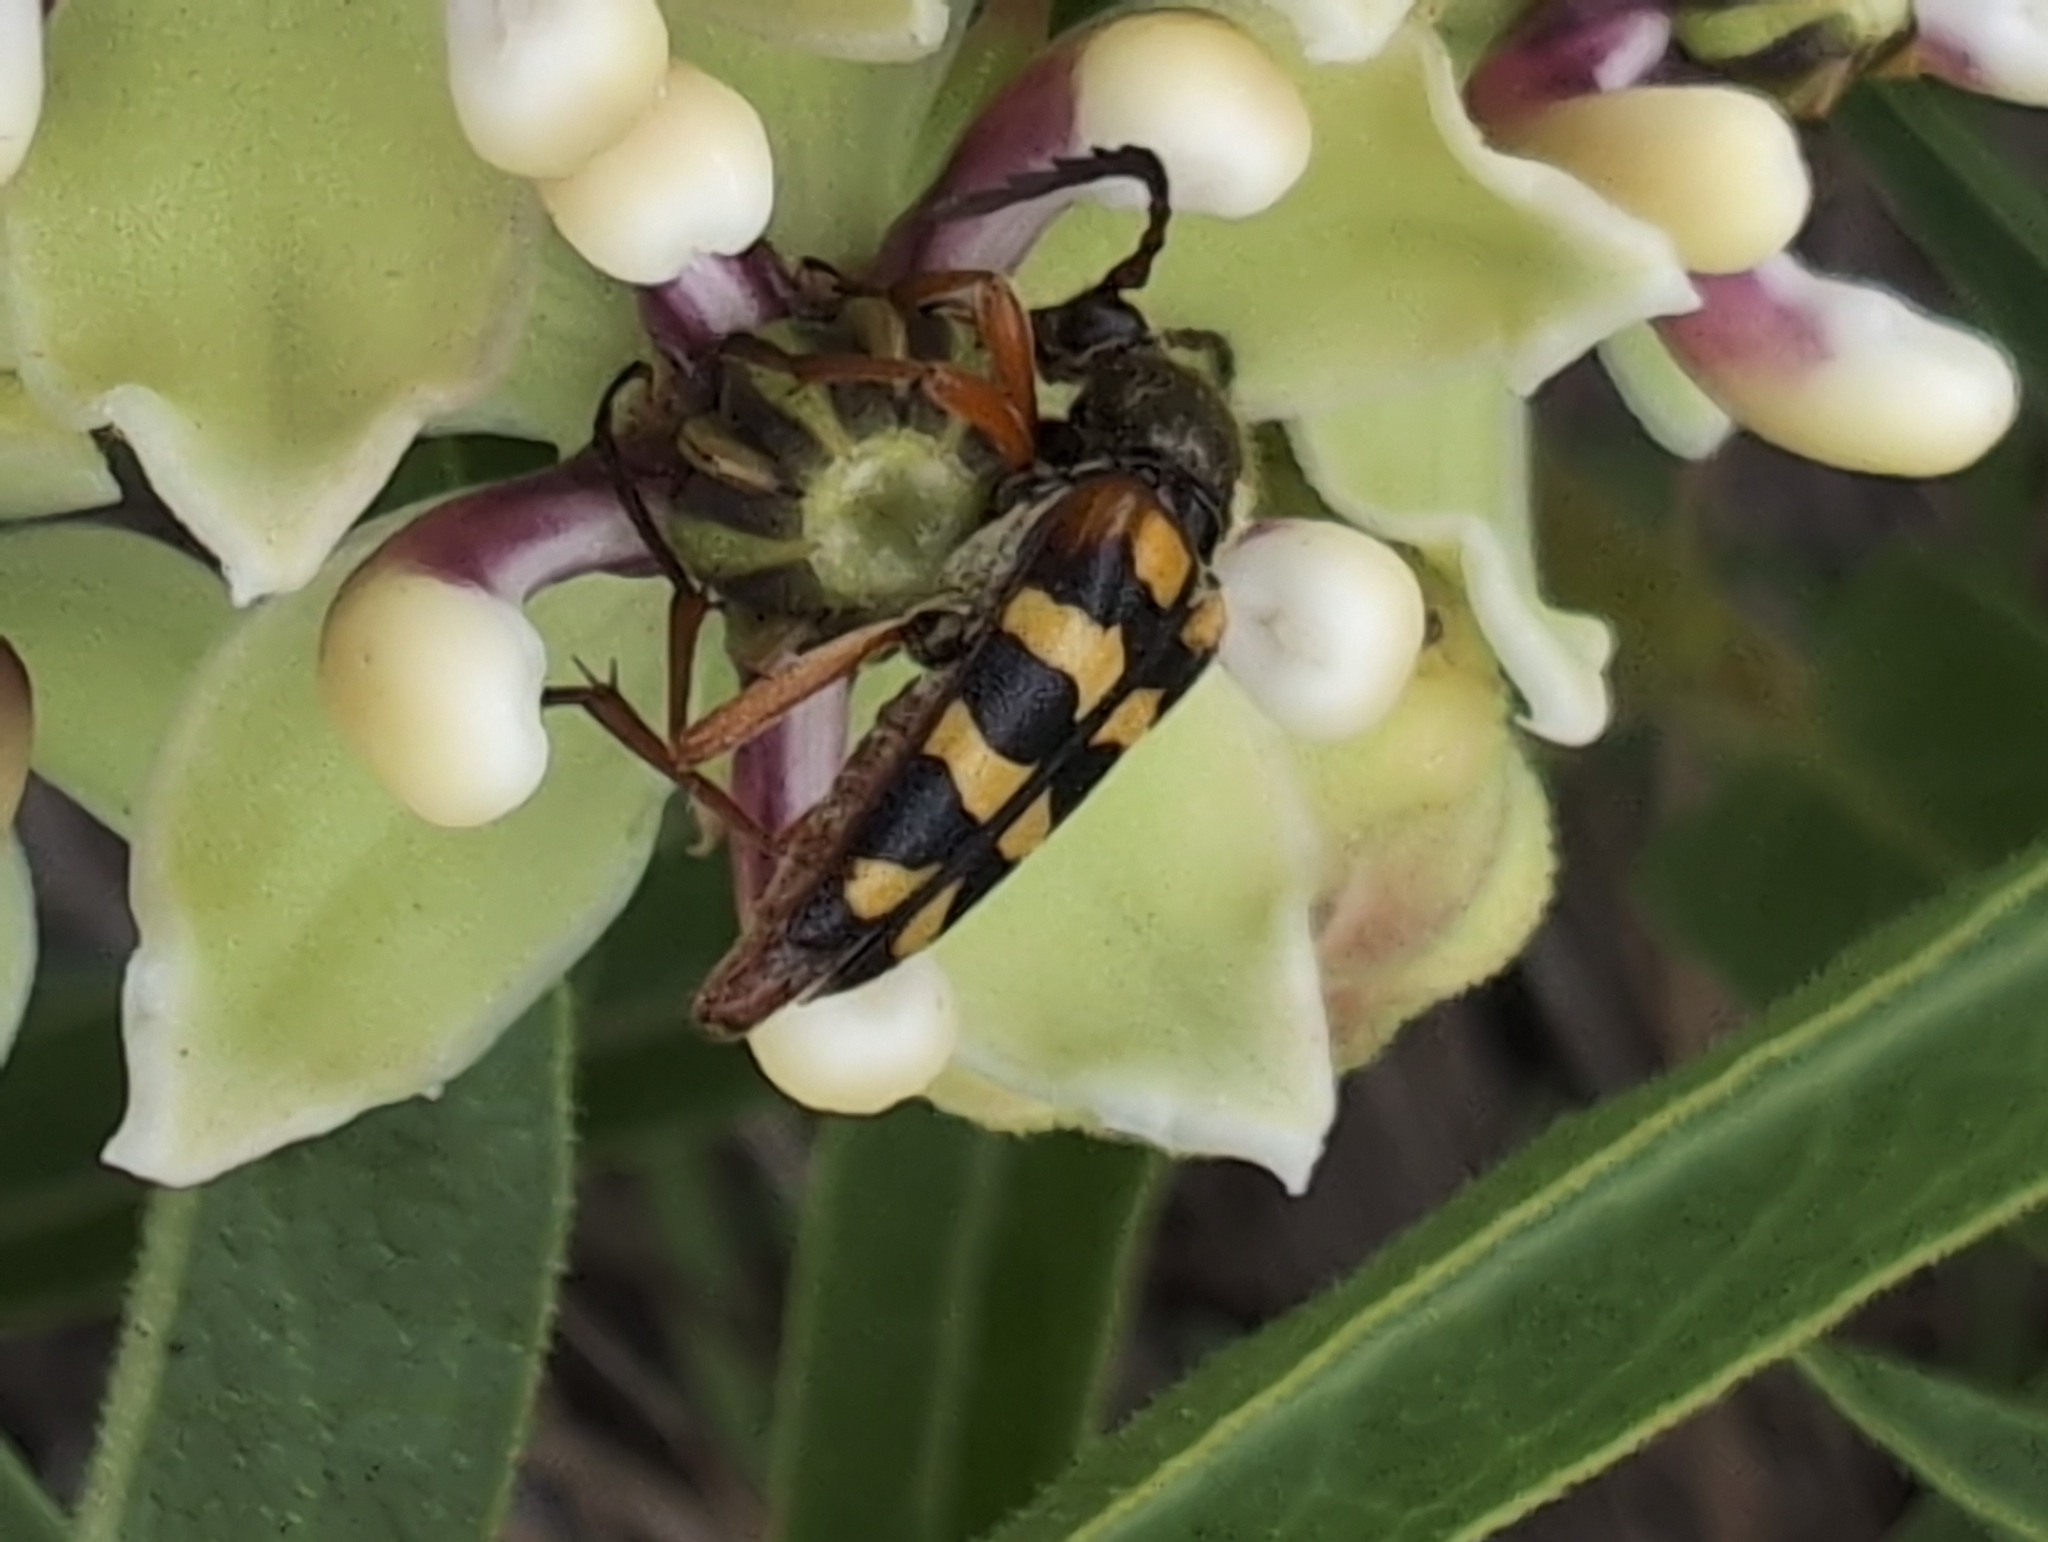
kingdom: Animalia
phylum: Arthropoda
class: Insecta
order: Coleoptera
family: Cerambycidae
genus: Typocerus
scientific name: Typocerus sinuatus
